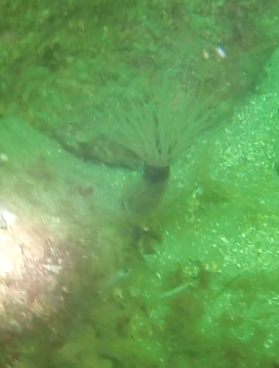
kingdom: Animalia
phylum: Echinodermata
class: Asteroidea
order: Valvatida
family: Asterinidae
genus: Patiria
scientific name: Patiria miniata
